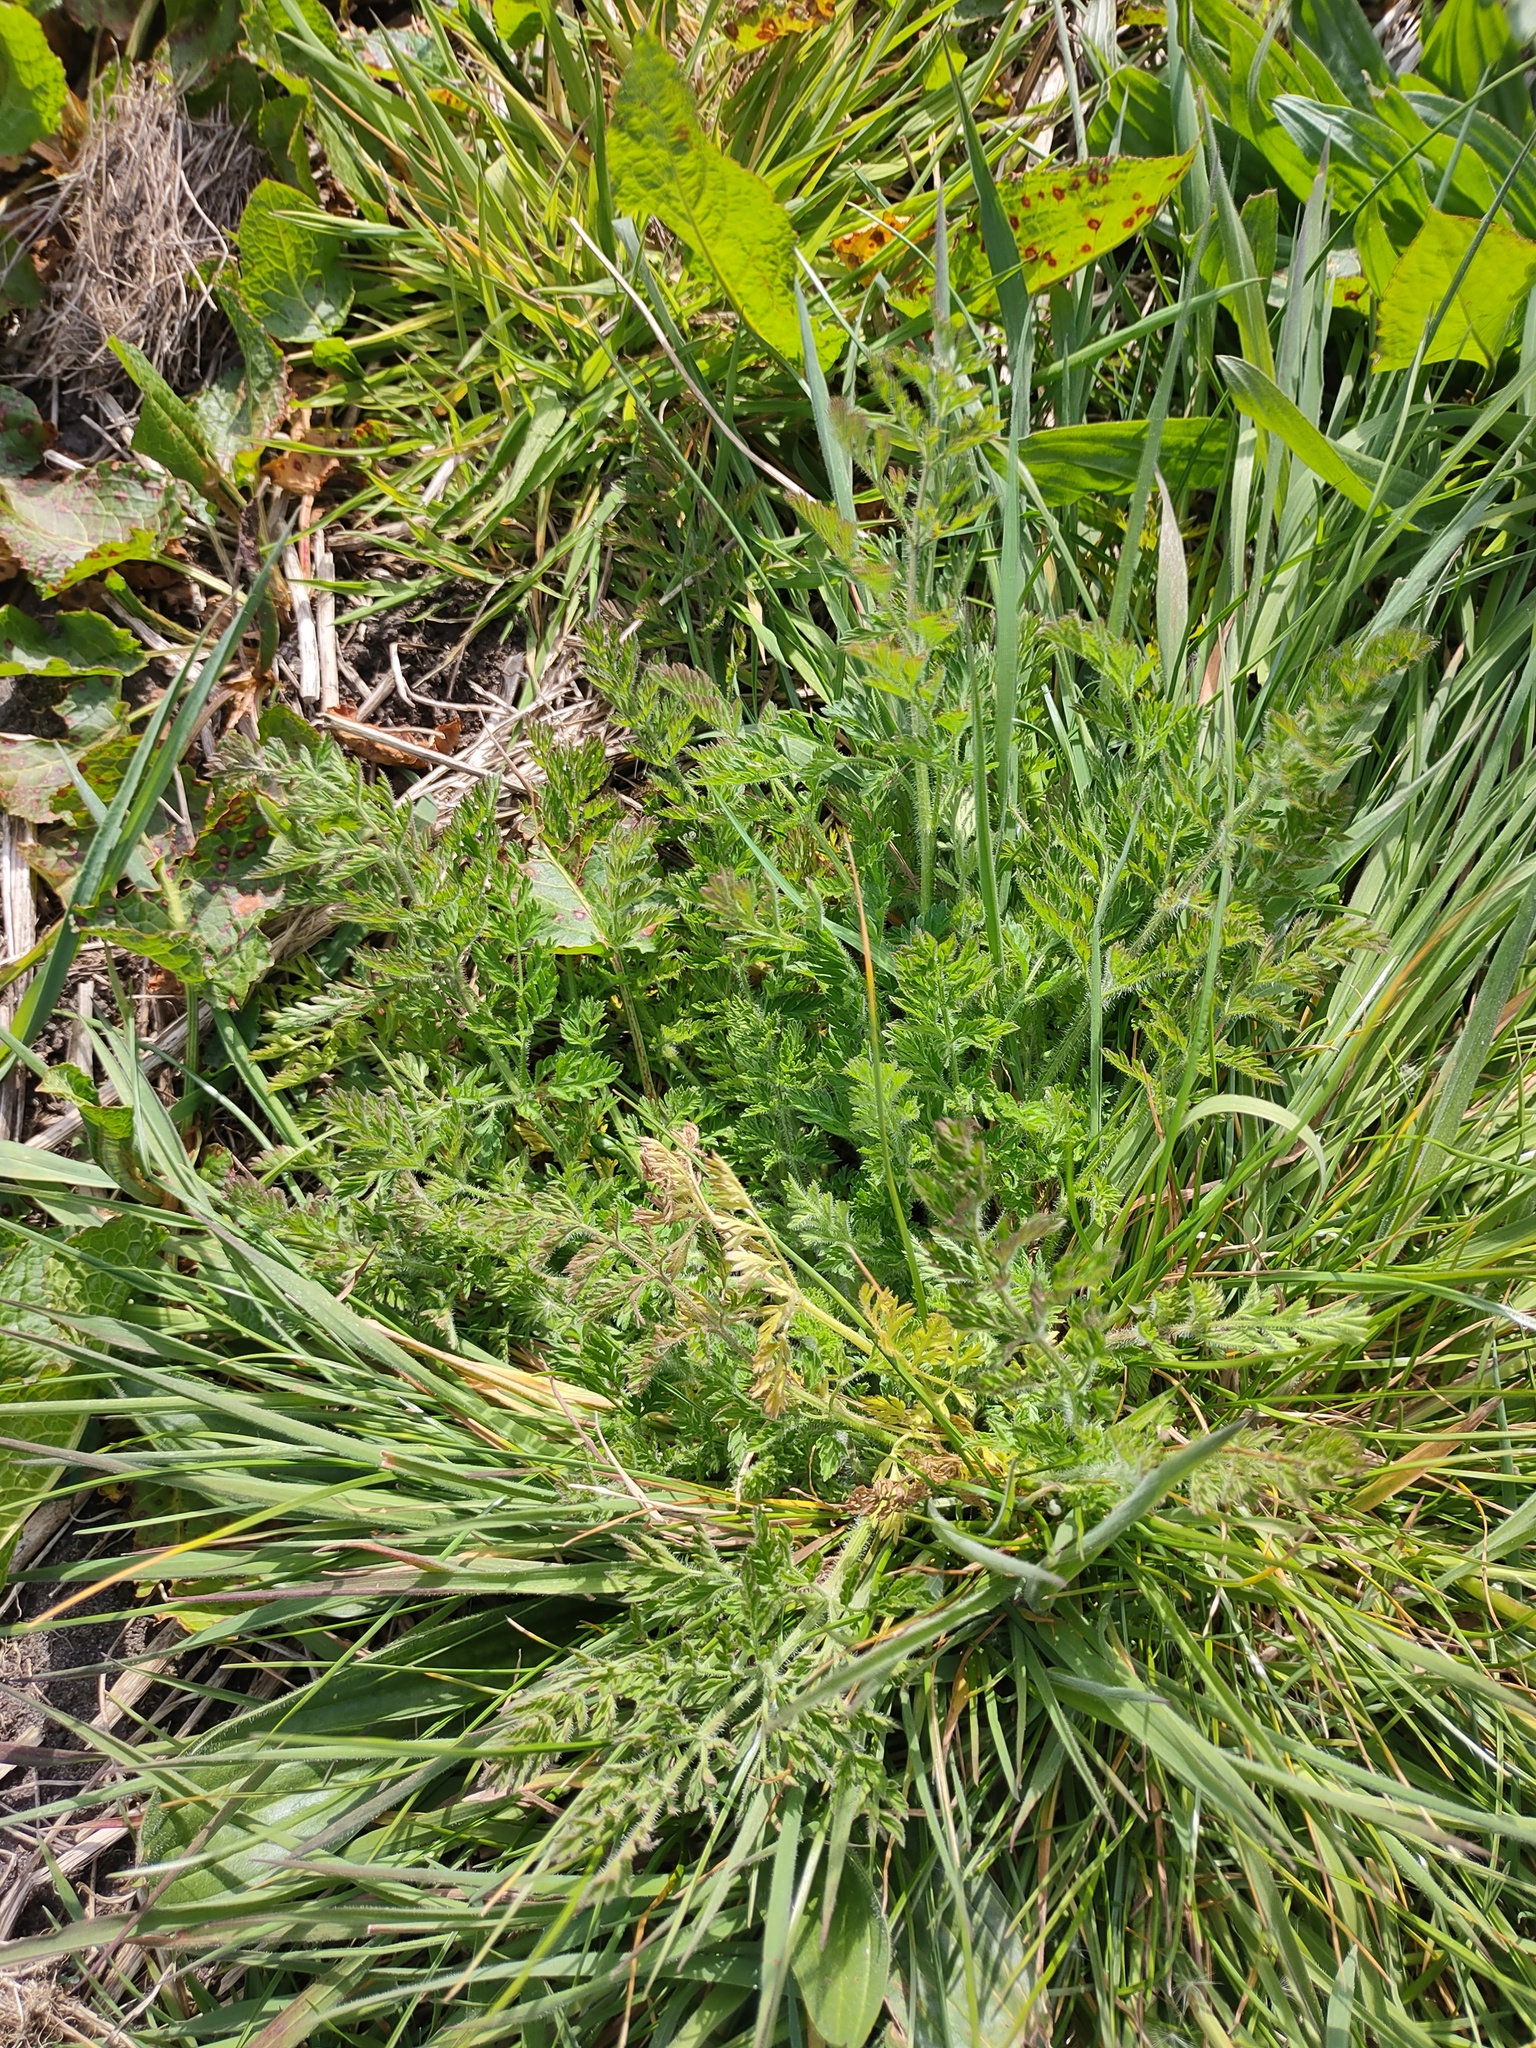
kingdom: Plantae
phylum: Tracheophyta
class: Magnoliopsida
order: Apiales
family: Apiaceae
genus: Daucus
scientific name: Daucus carota
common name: Wild carrot
